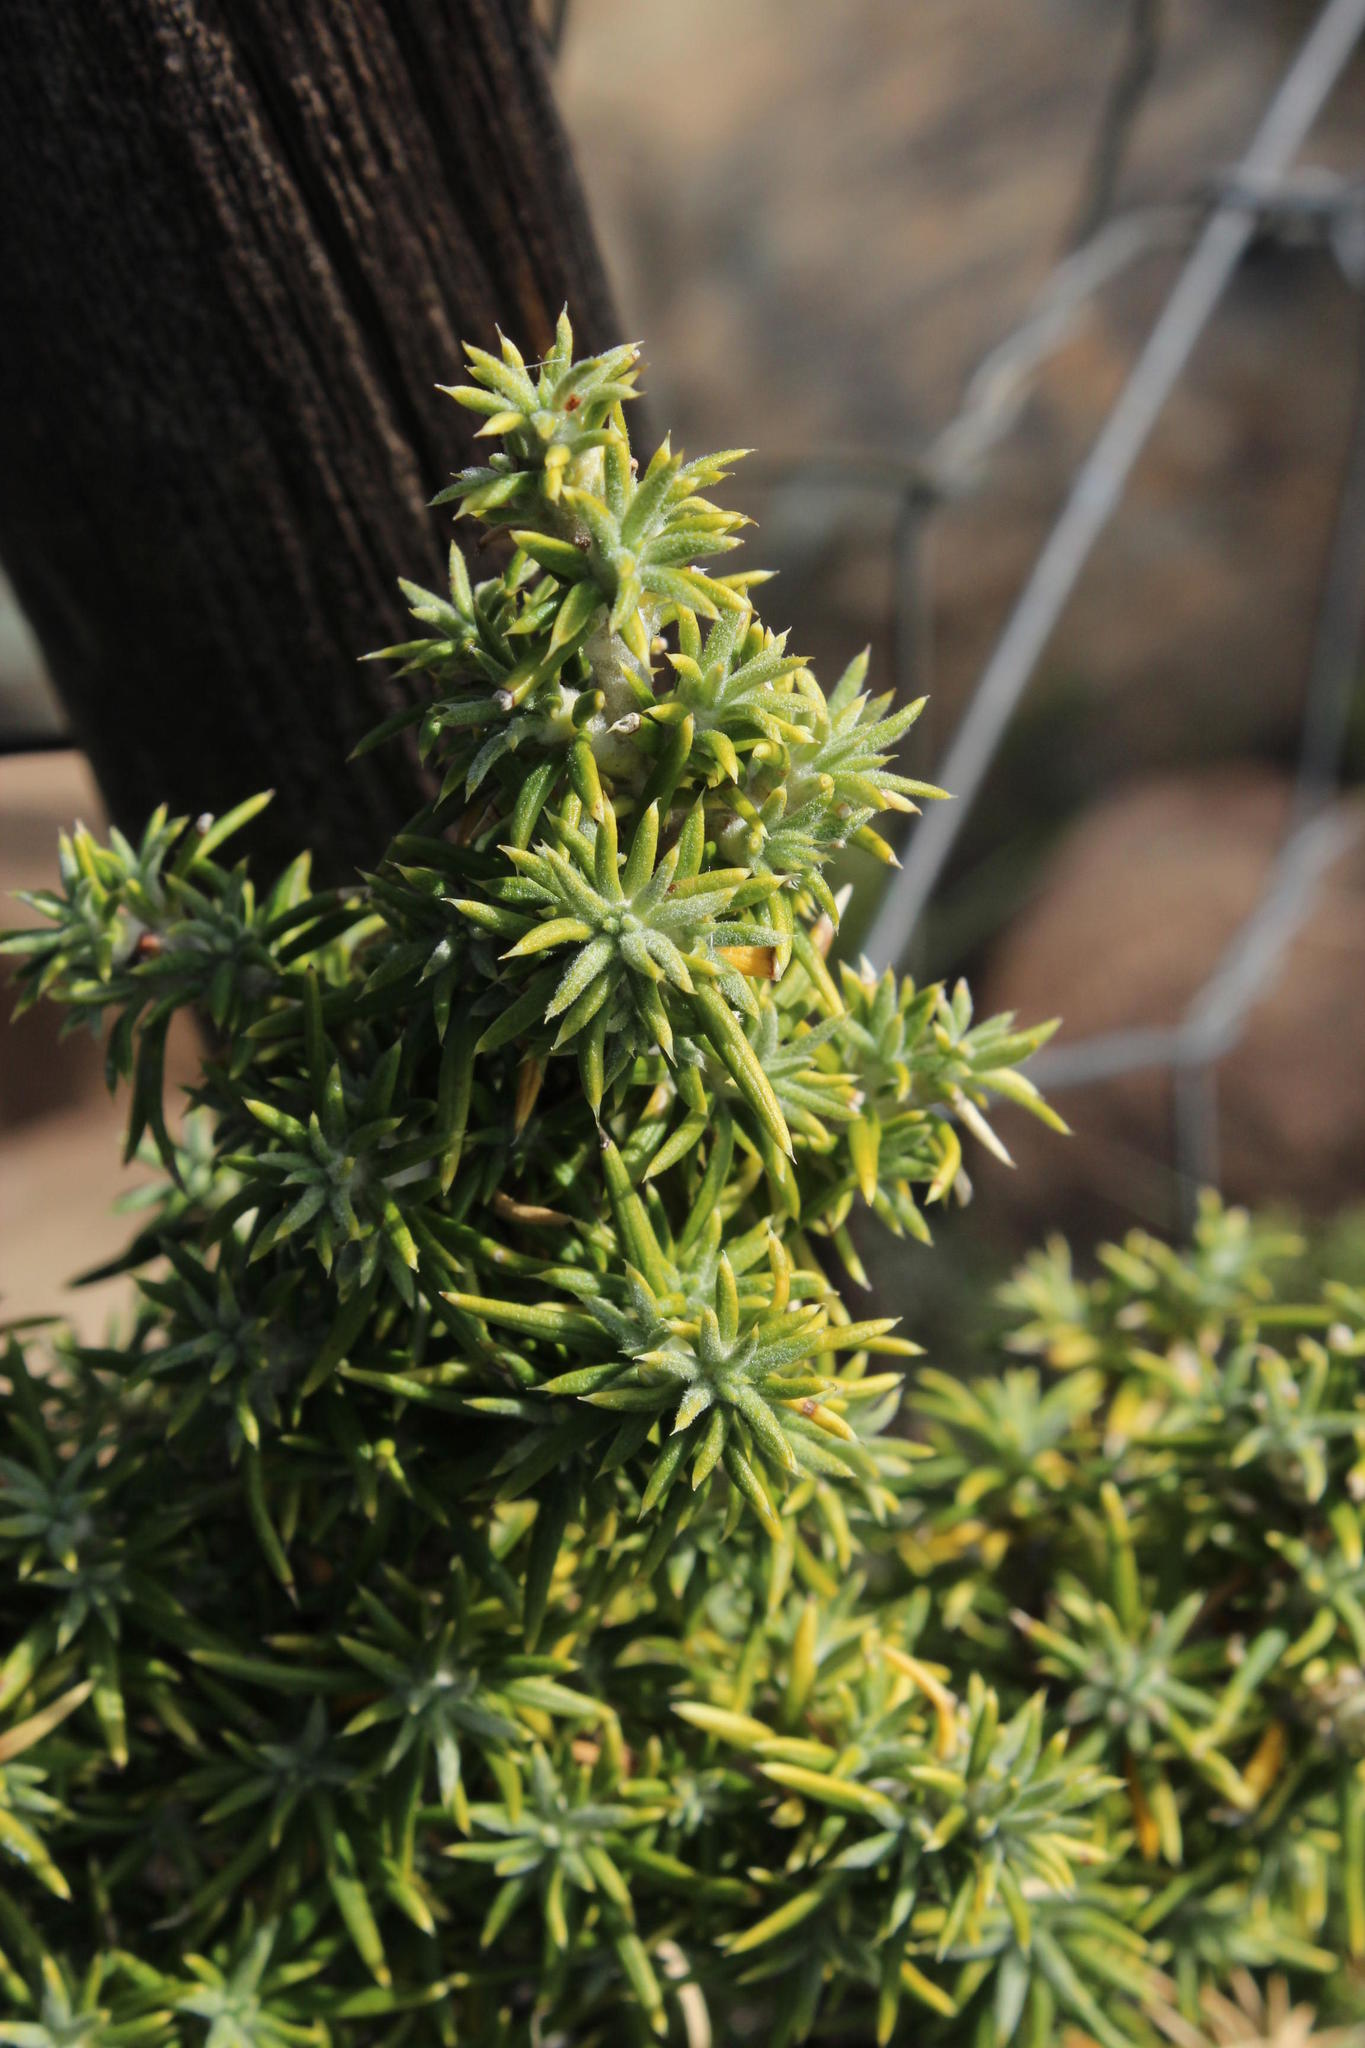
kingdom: Plantae
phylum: Tracheophyta
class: Magnoliopsida
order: Rosales
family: Rosaceae
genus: Cliffortia
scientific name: Cliffortia arborea
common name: Bokkeveld tree rice-bush
